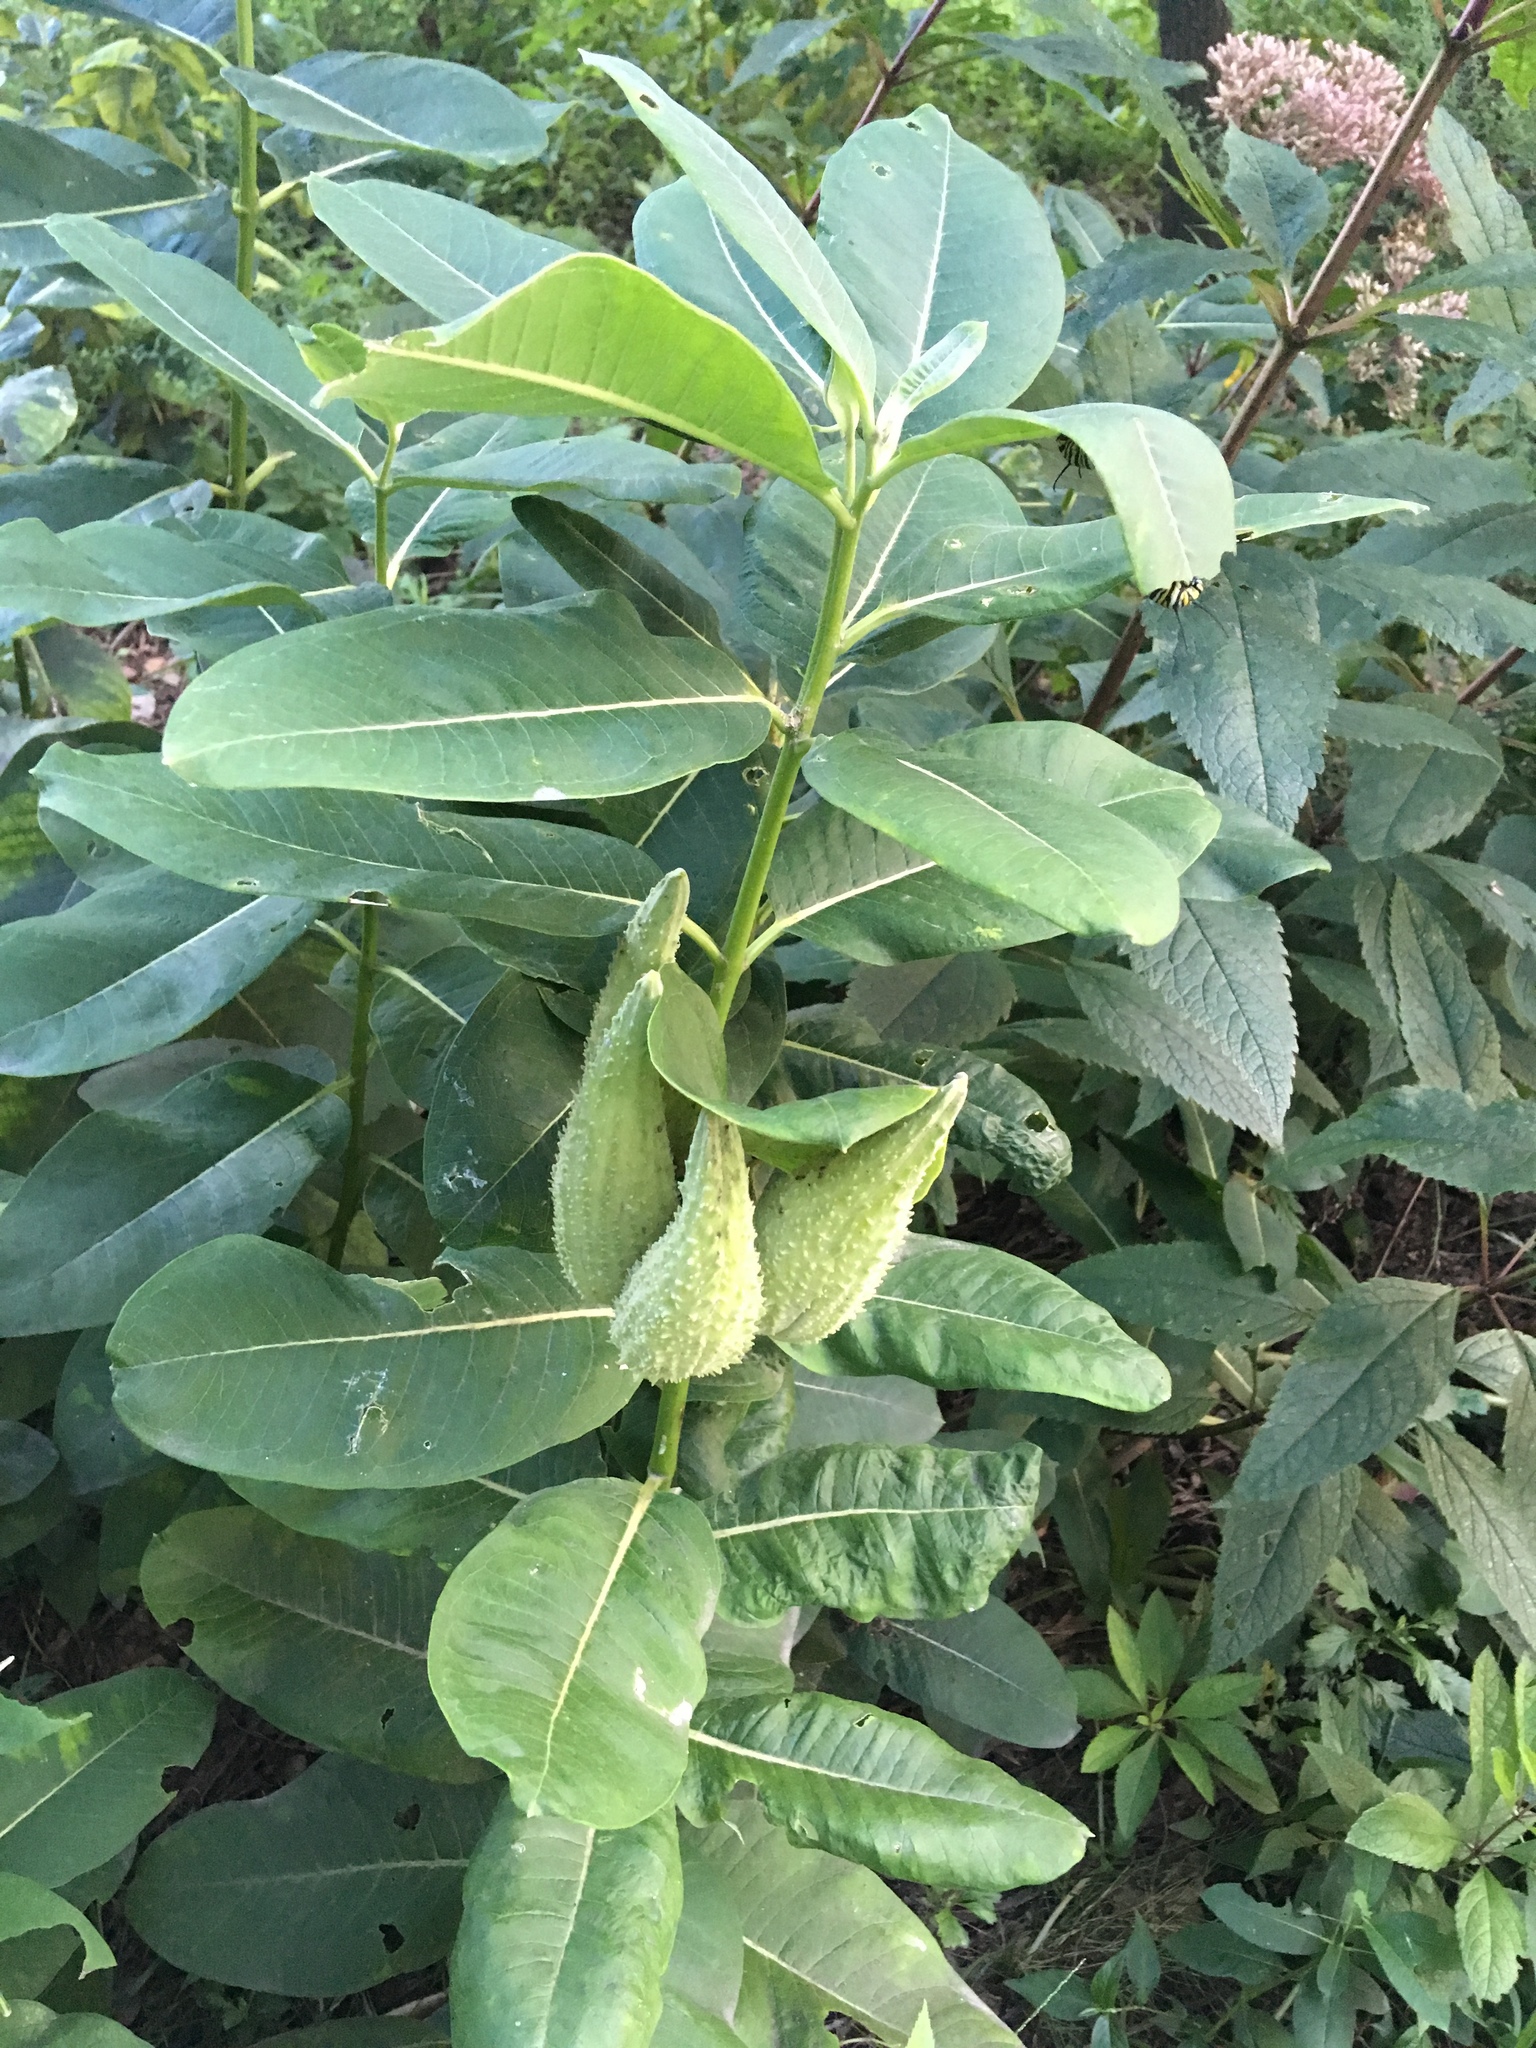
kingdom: Plantae
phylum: Tracheophyta
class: Magnoliopsida
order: Gentianales
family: Apocynaceae
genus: Asclepias
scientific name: Asclepias syriaca
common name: Common milkweed
